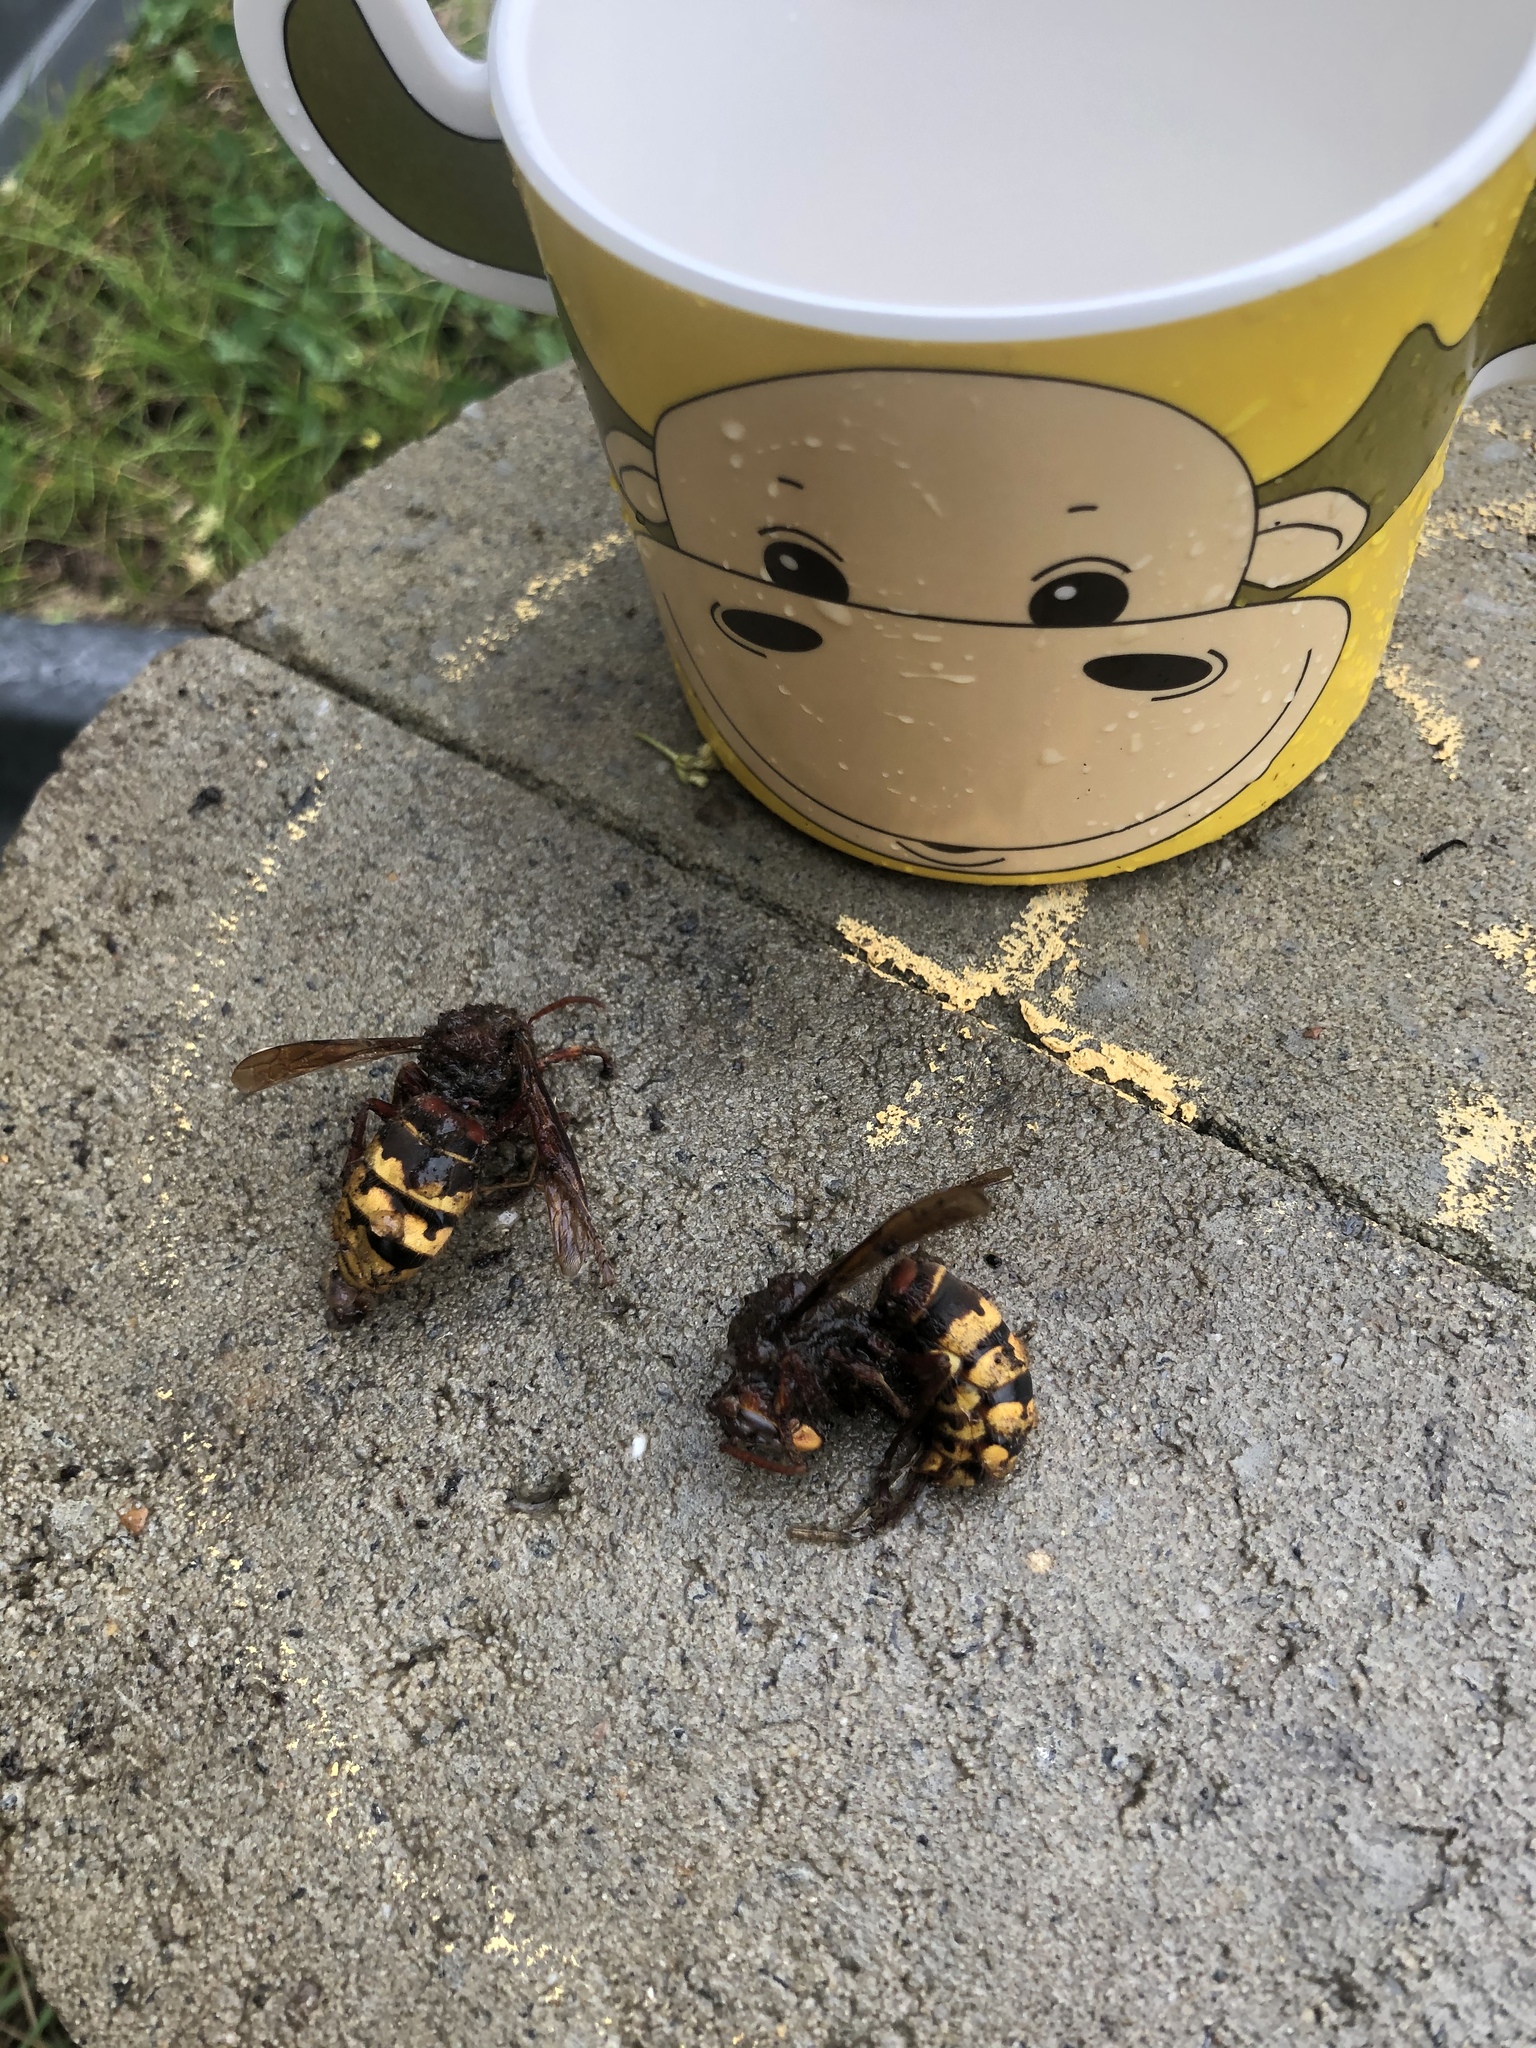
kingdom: Animalia
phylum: Arthropoda
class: Insecta
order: Hymenoptera
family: Vespidae
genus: Vespa
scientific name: Vespa crabro
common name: Hornet
